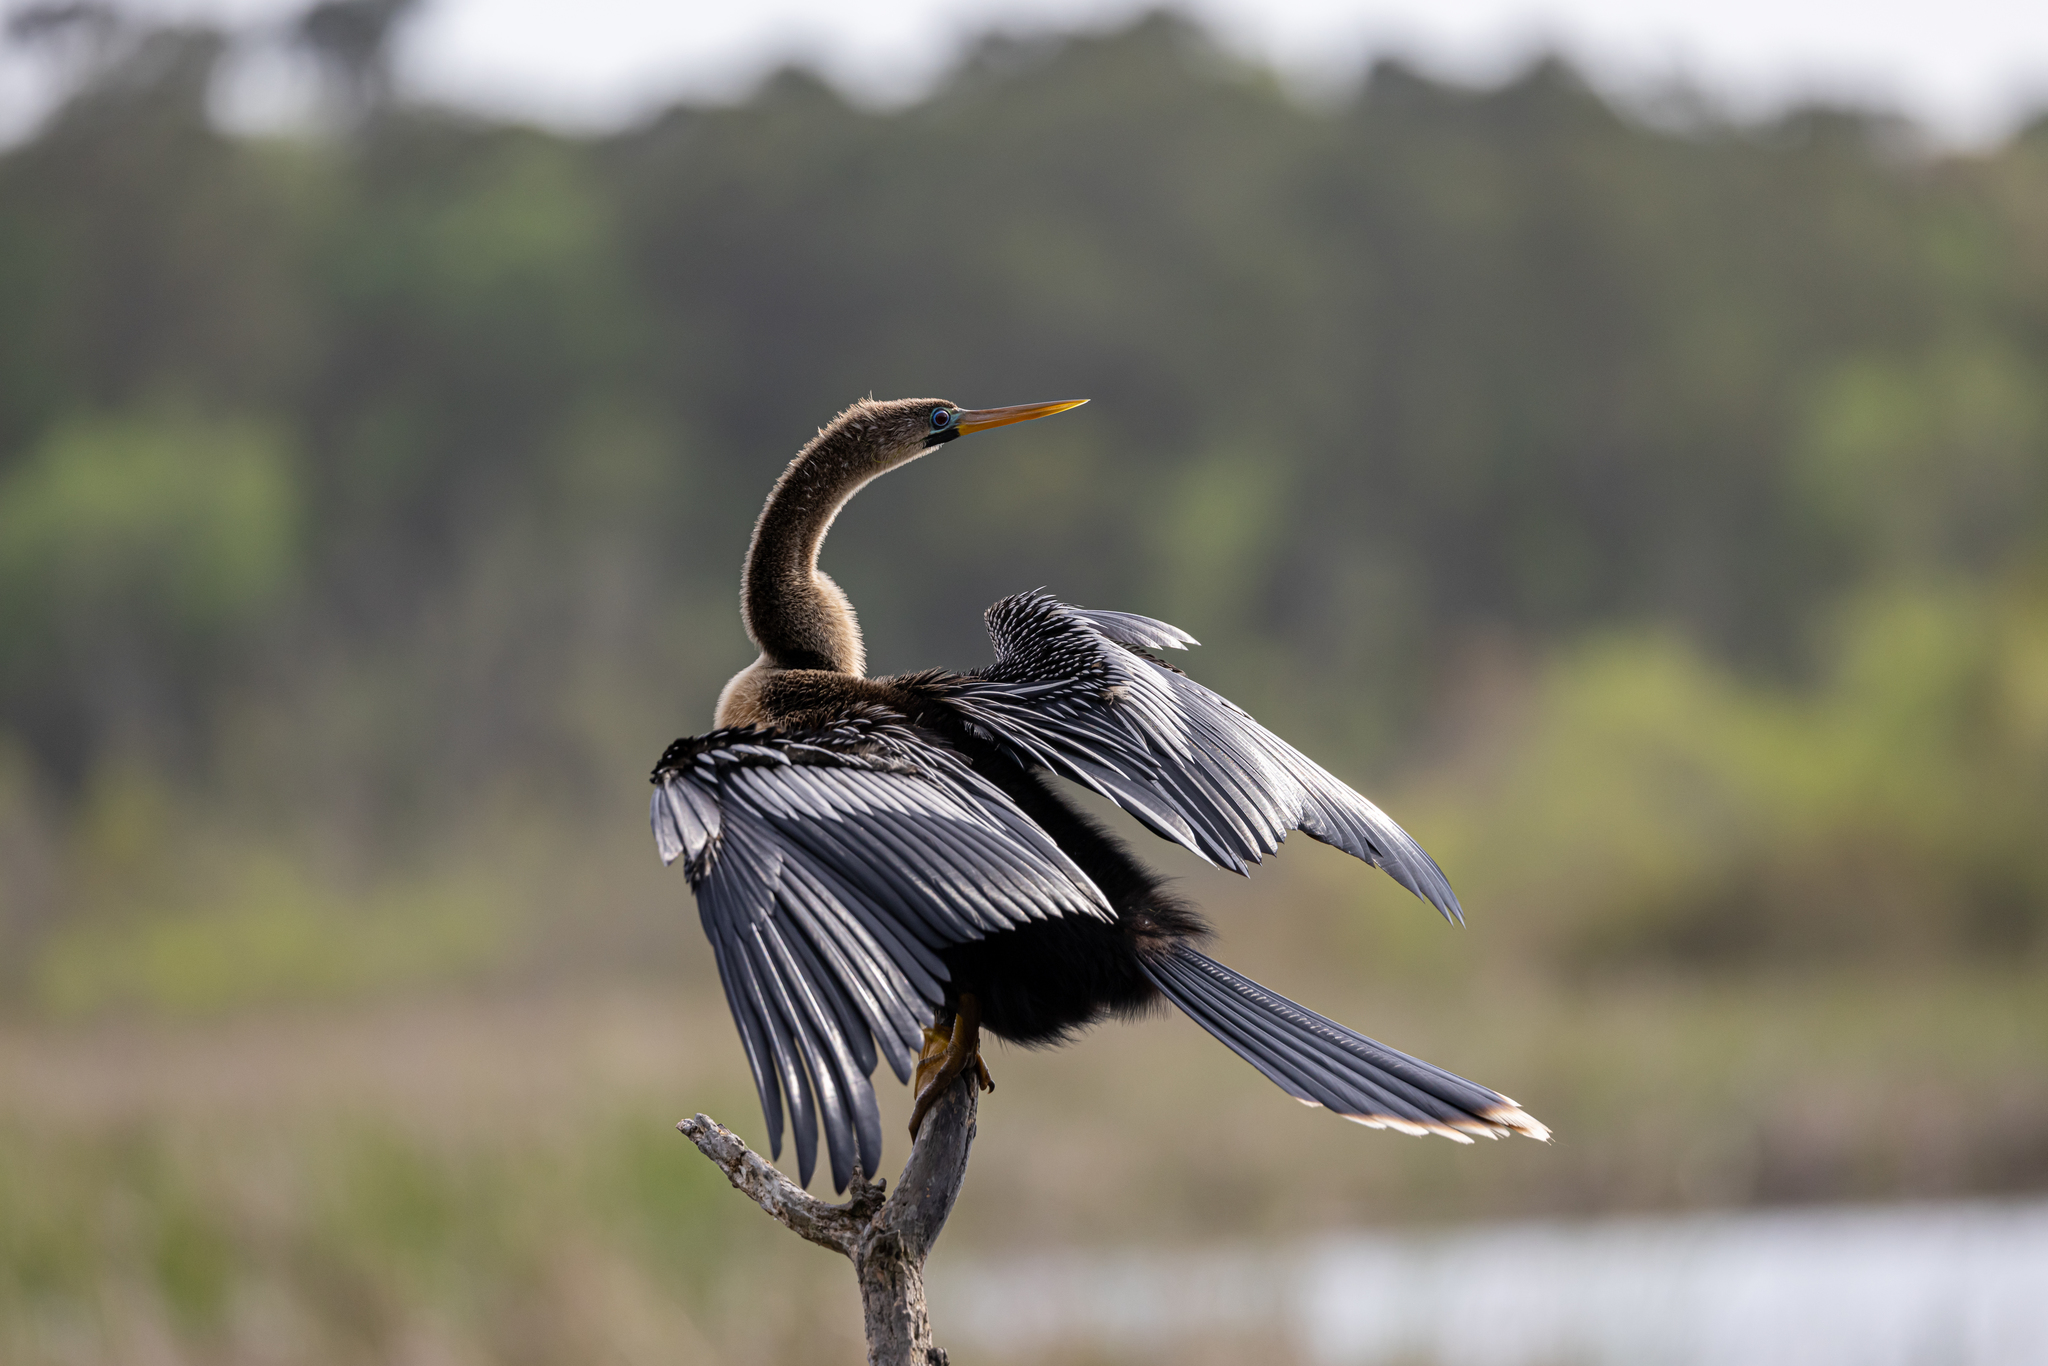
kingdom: Animalia
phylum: Chordata
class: Aves
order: Suliformes
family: Anhingidae
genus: Anhinga
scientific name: Anhinga anhinga
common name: Anhinga
